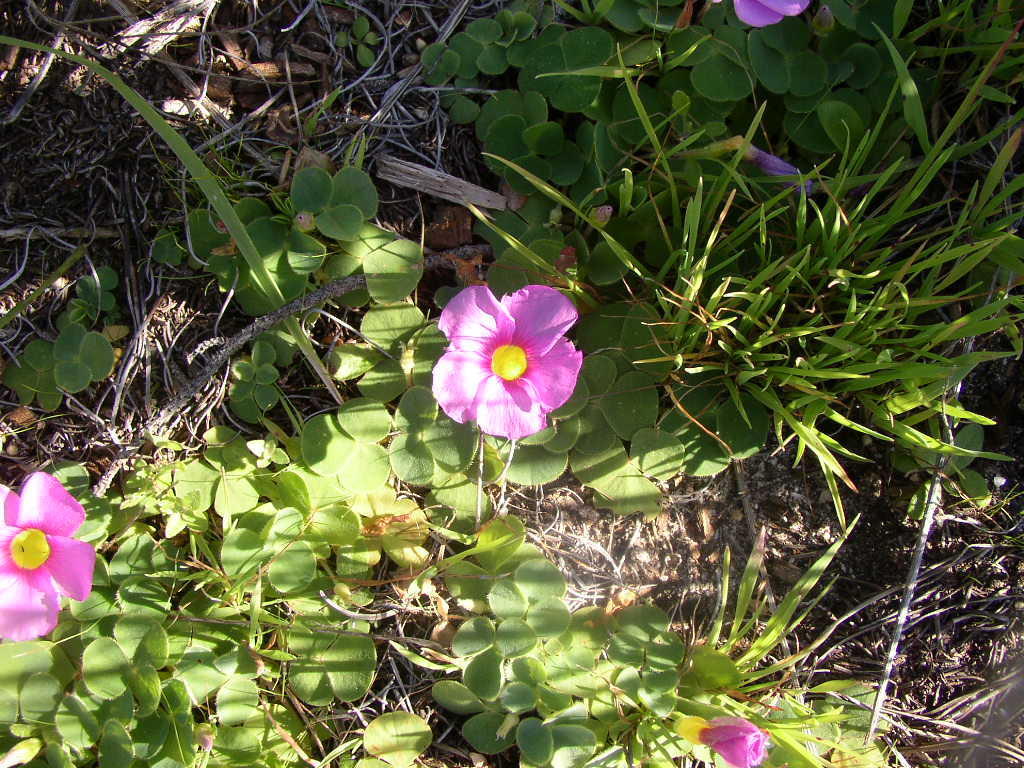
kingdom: Plantae
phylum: Tracheophyta
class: Magnoliopsida
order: Oxalidales
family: Oxalidaceae
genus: Oxalis
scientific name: Oxalis purpurea
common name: Purple woodsorrel
